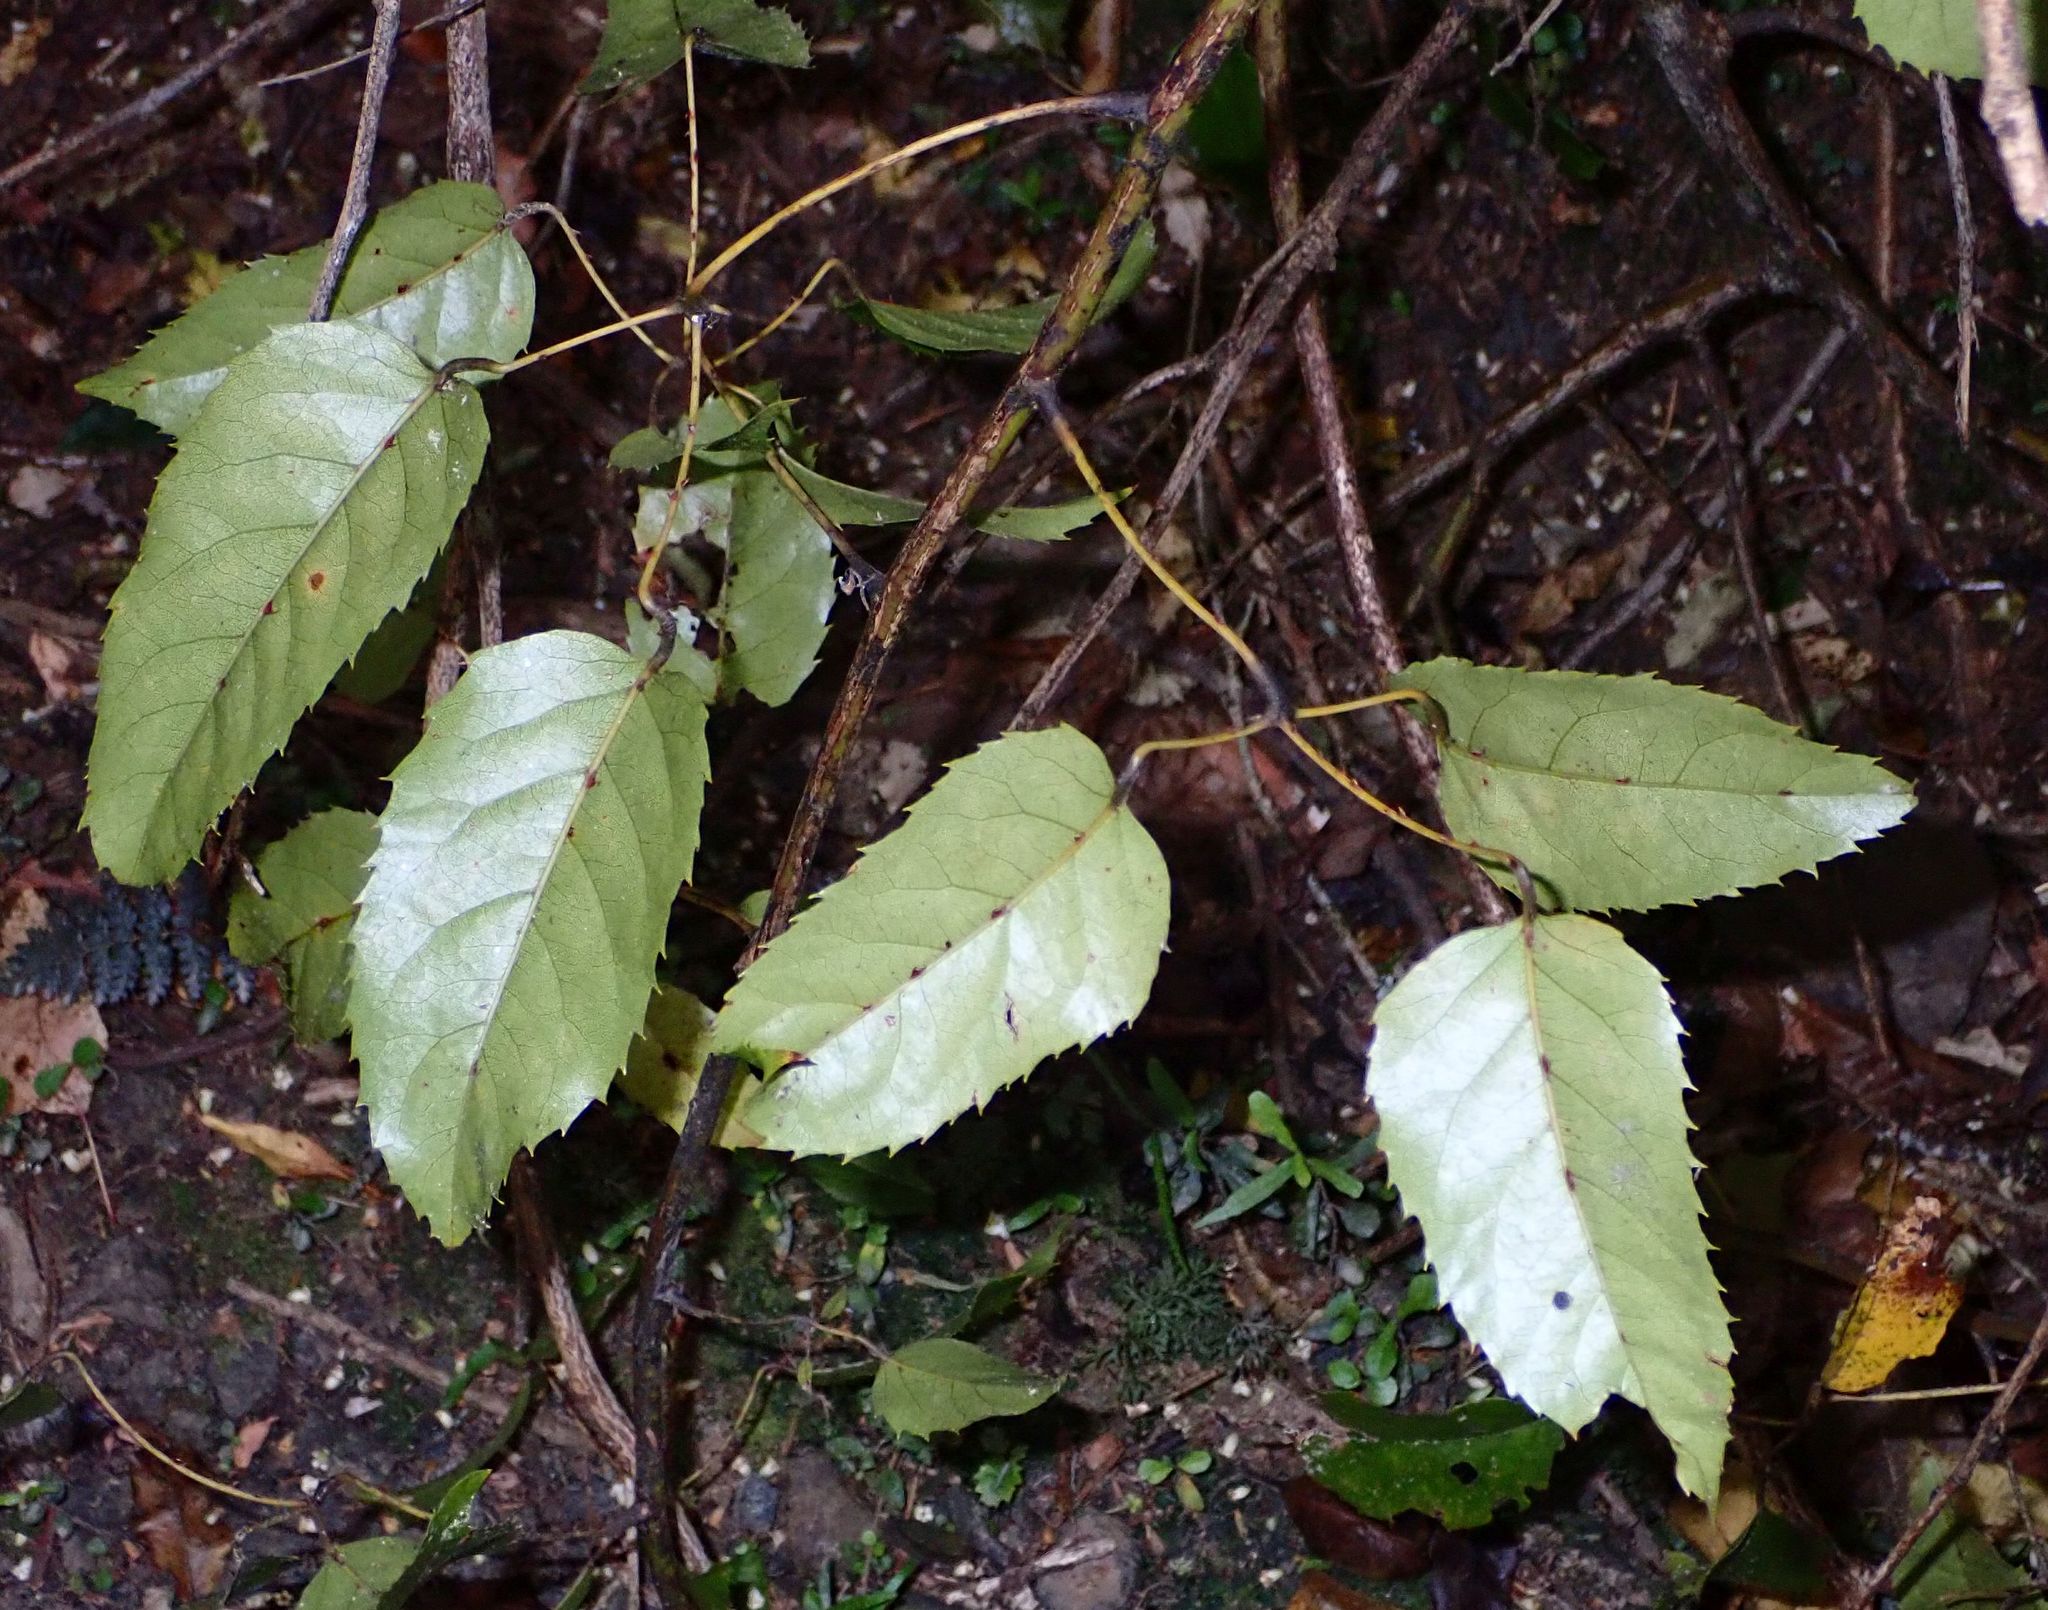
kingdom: Plantae
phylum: Tracheophyta
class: Magnoliopsida
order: Rosales
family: Rosaceae
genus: Rubus
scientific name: Rubus cissoides
